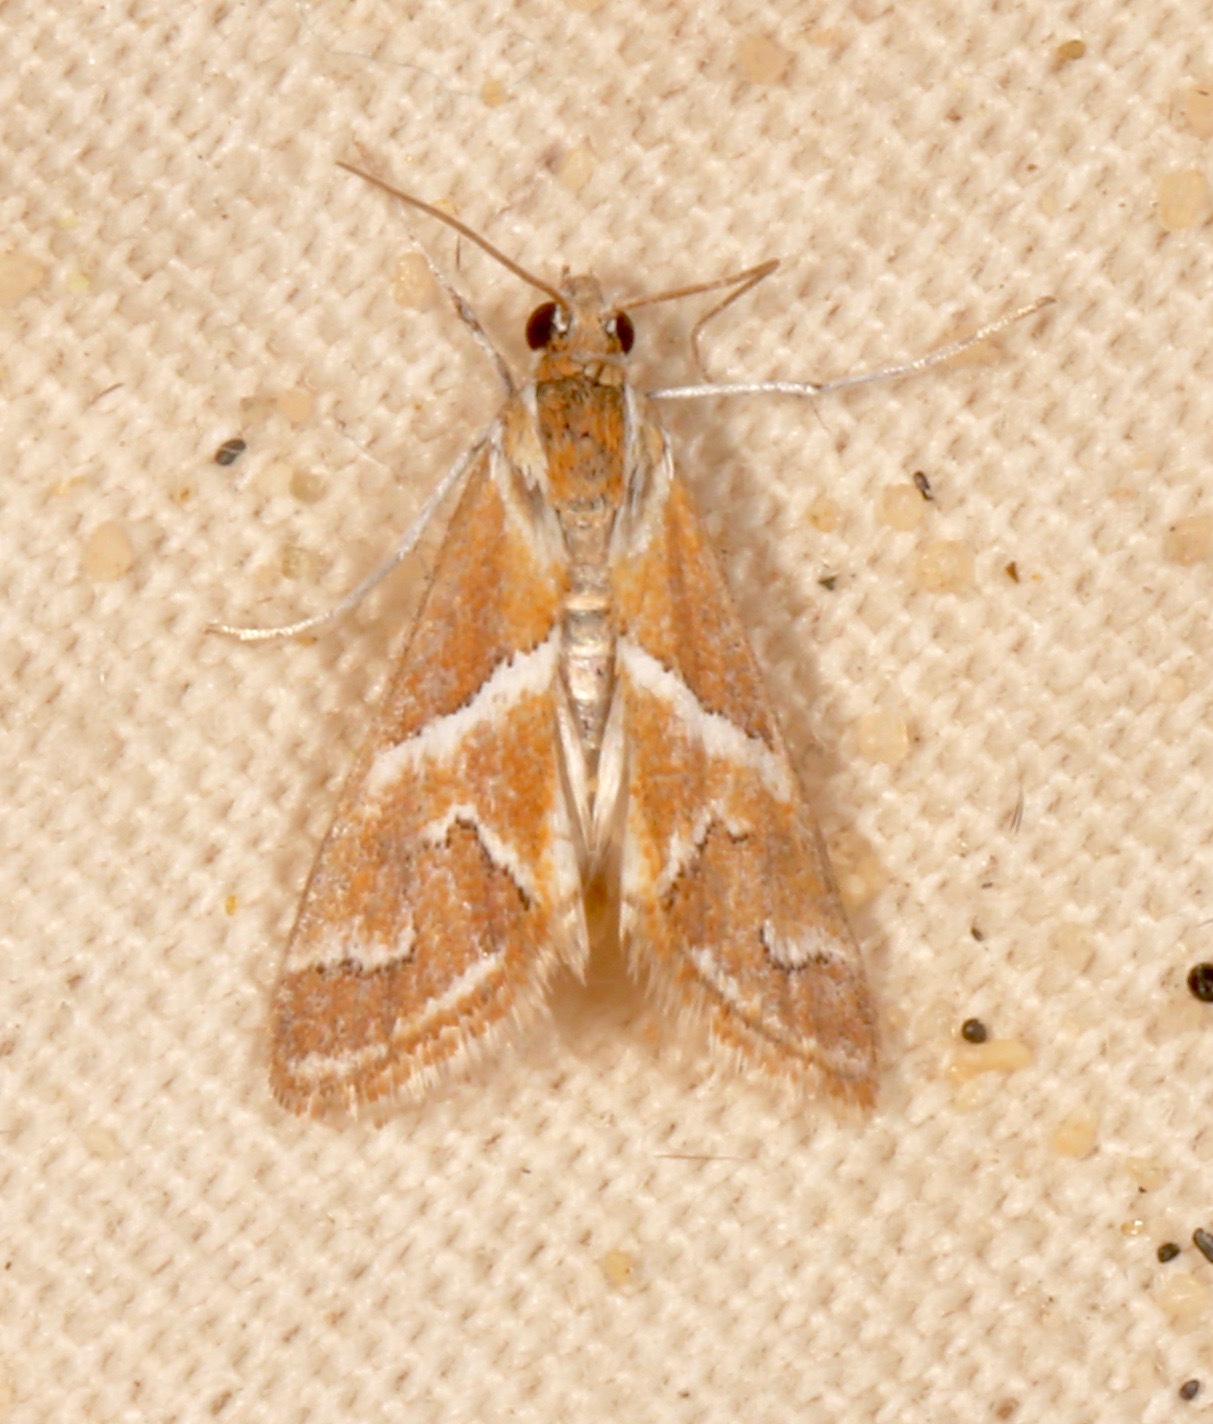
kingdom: Animalia
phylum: Arthropoda
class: Insecta
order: Lepidoptera
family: Crambidae
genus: Noctueliopsis
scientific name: Noctueliopsis virula
